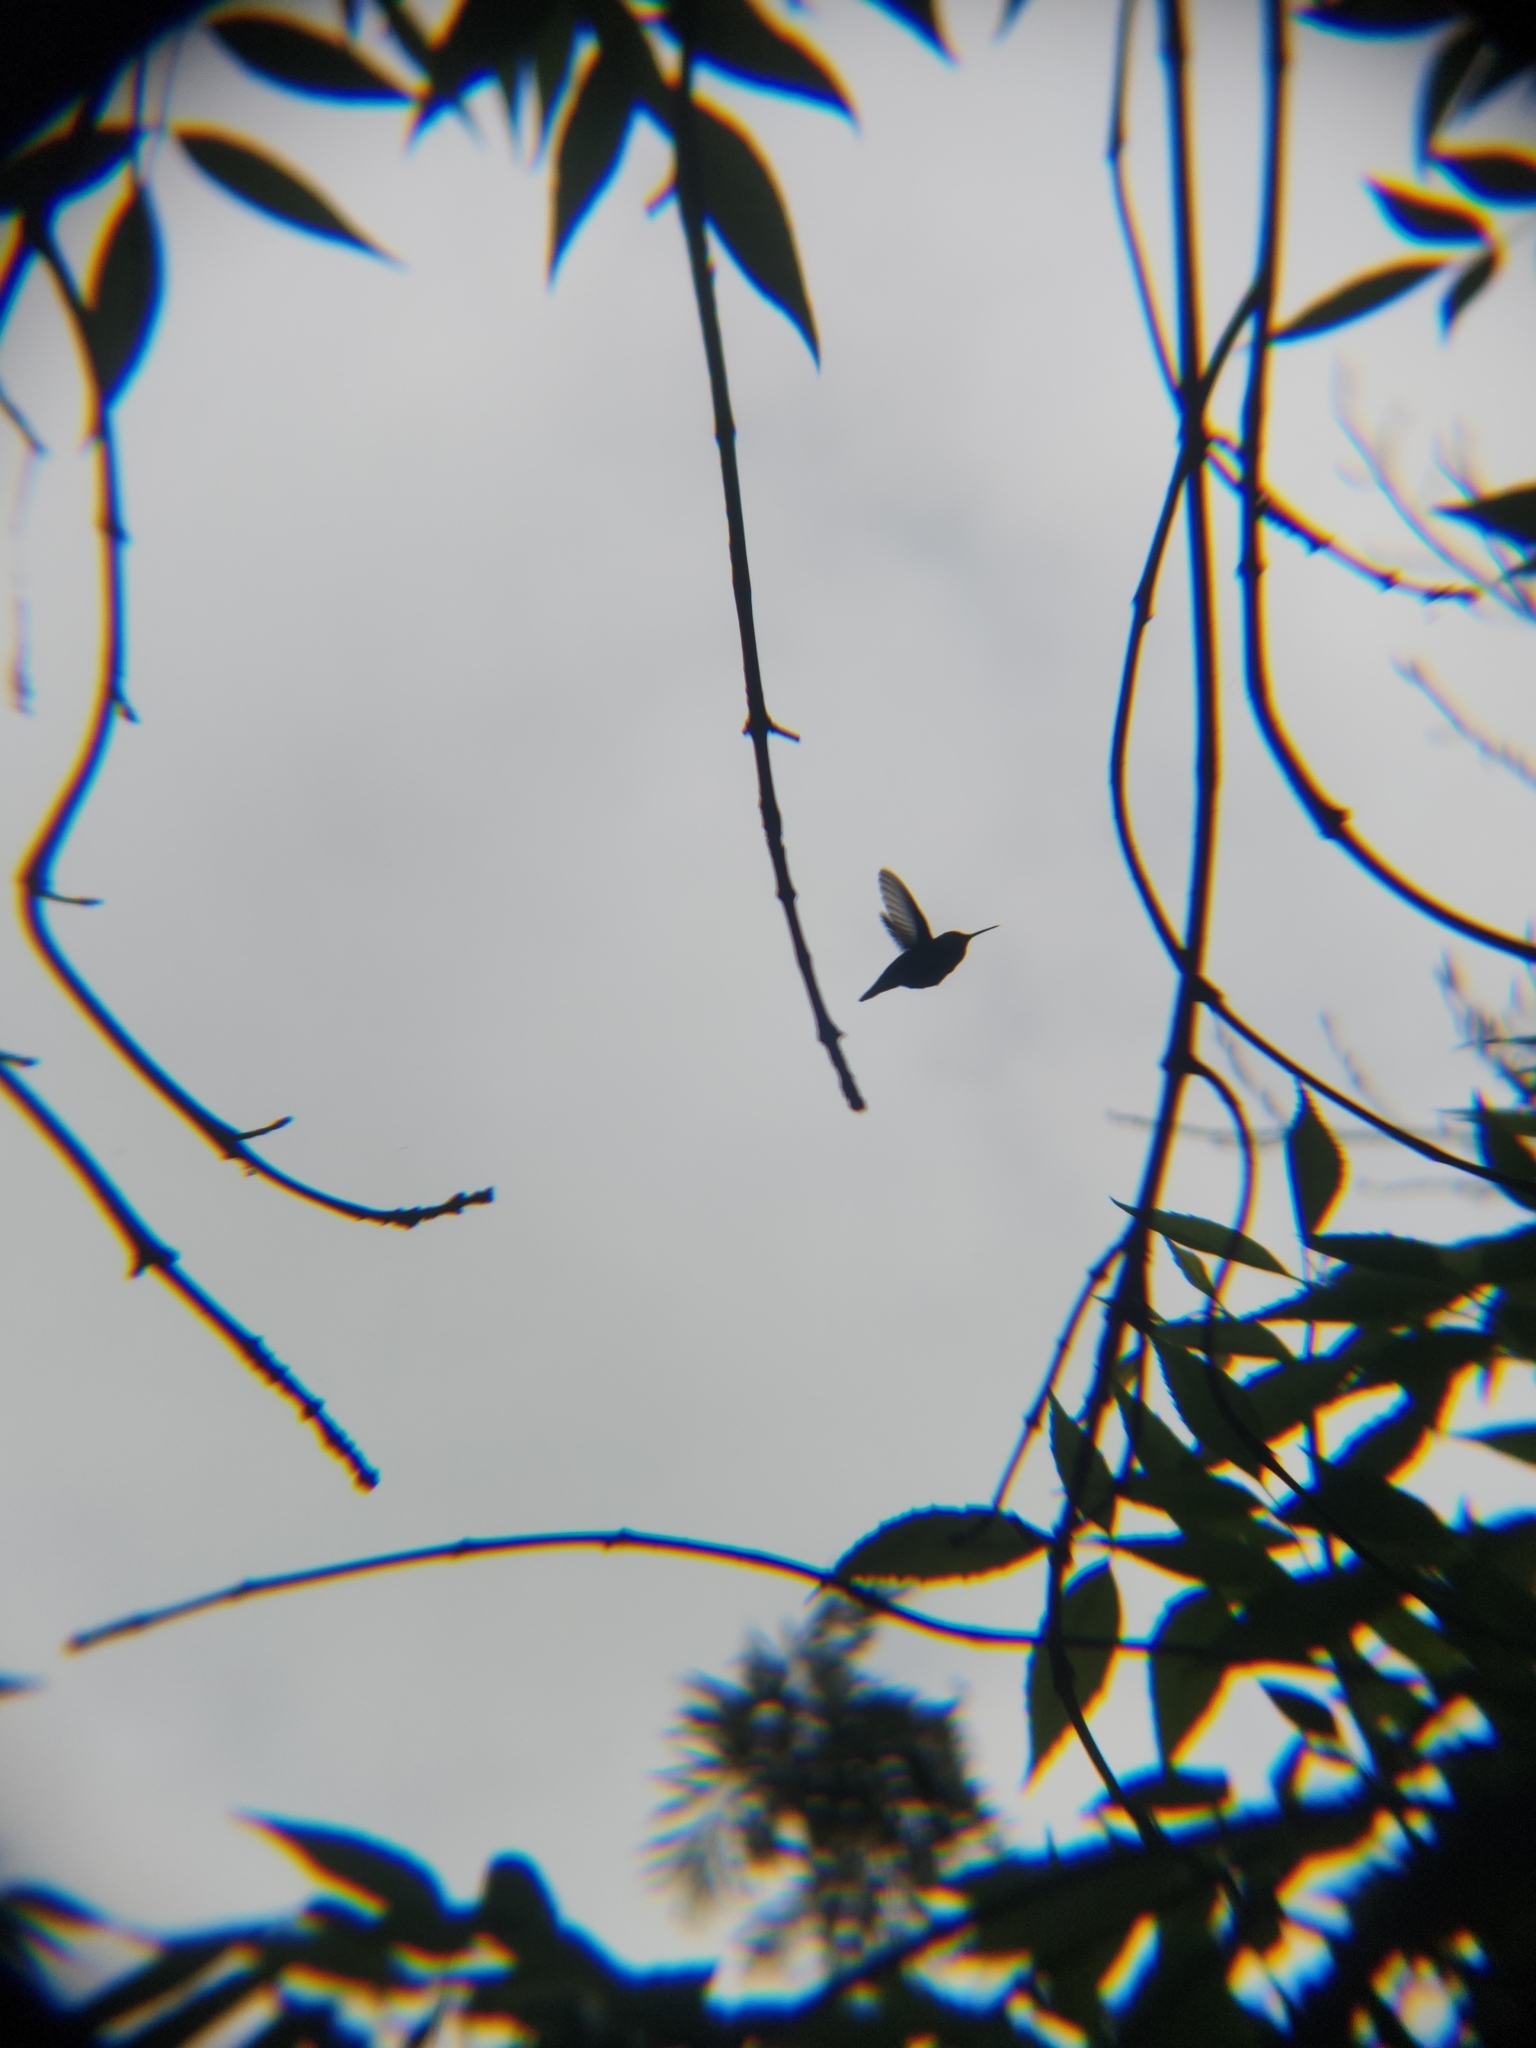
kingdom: Animalia
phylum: Chordata
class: Aves
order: Apodiformes
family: Trochilidae
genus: Calypte
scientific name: Calypte anna
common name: Anna's hummingbird
